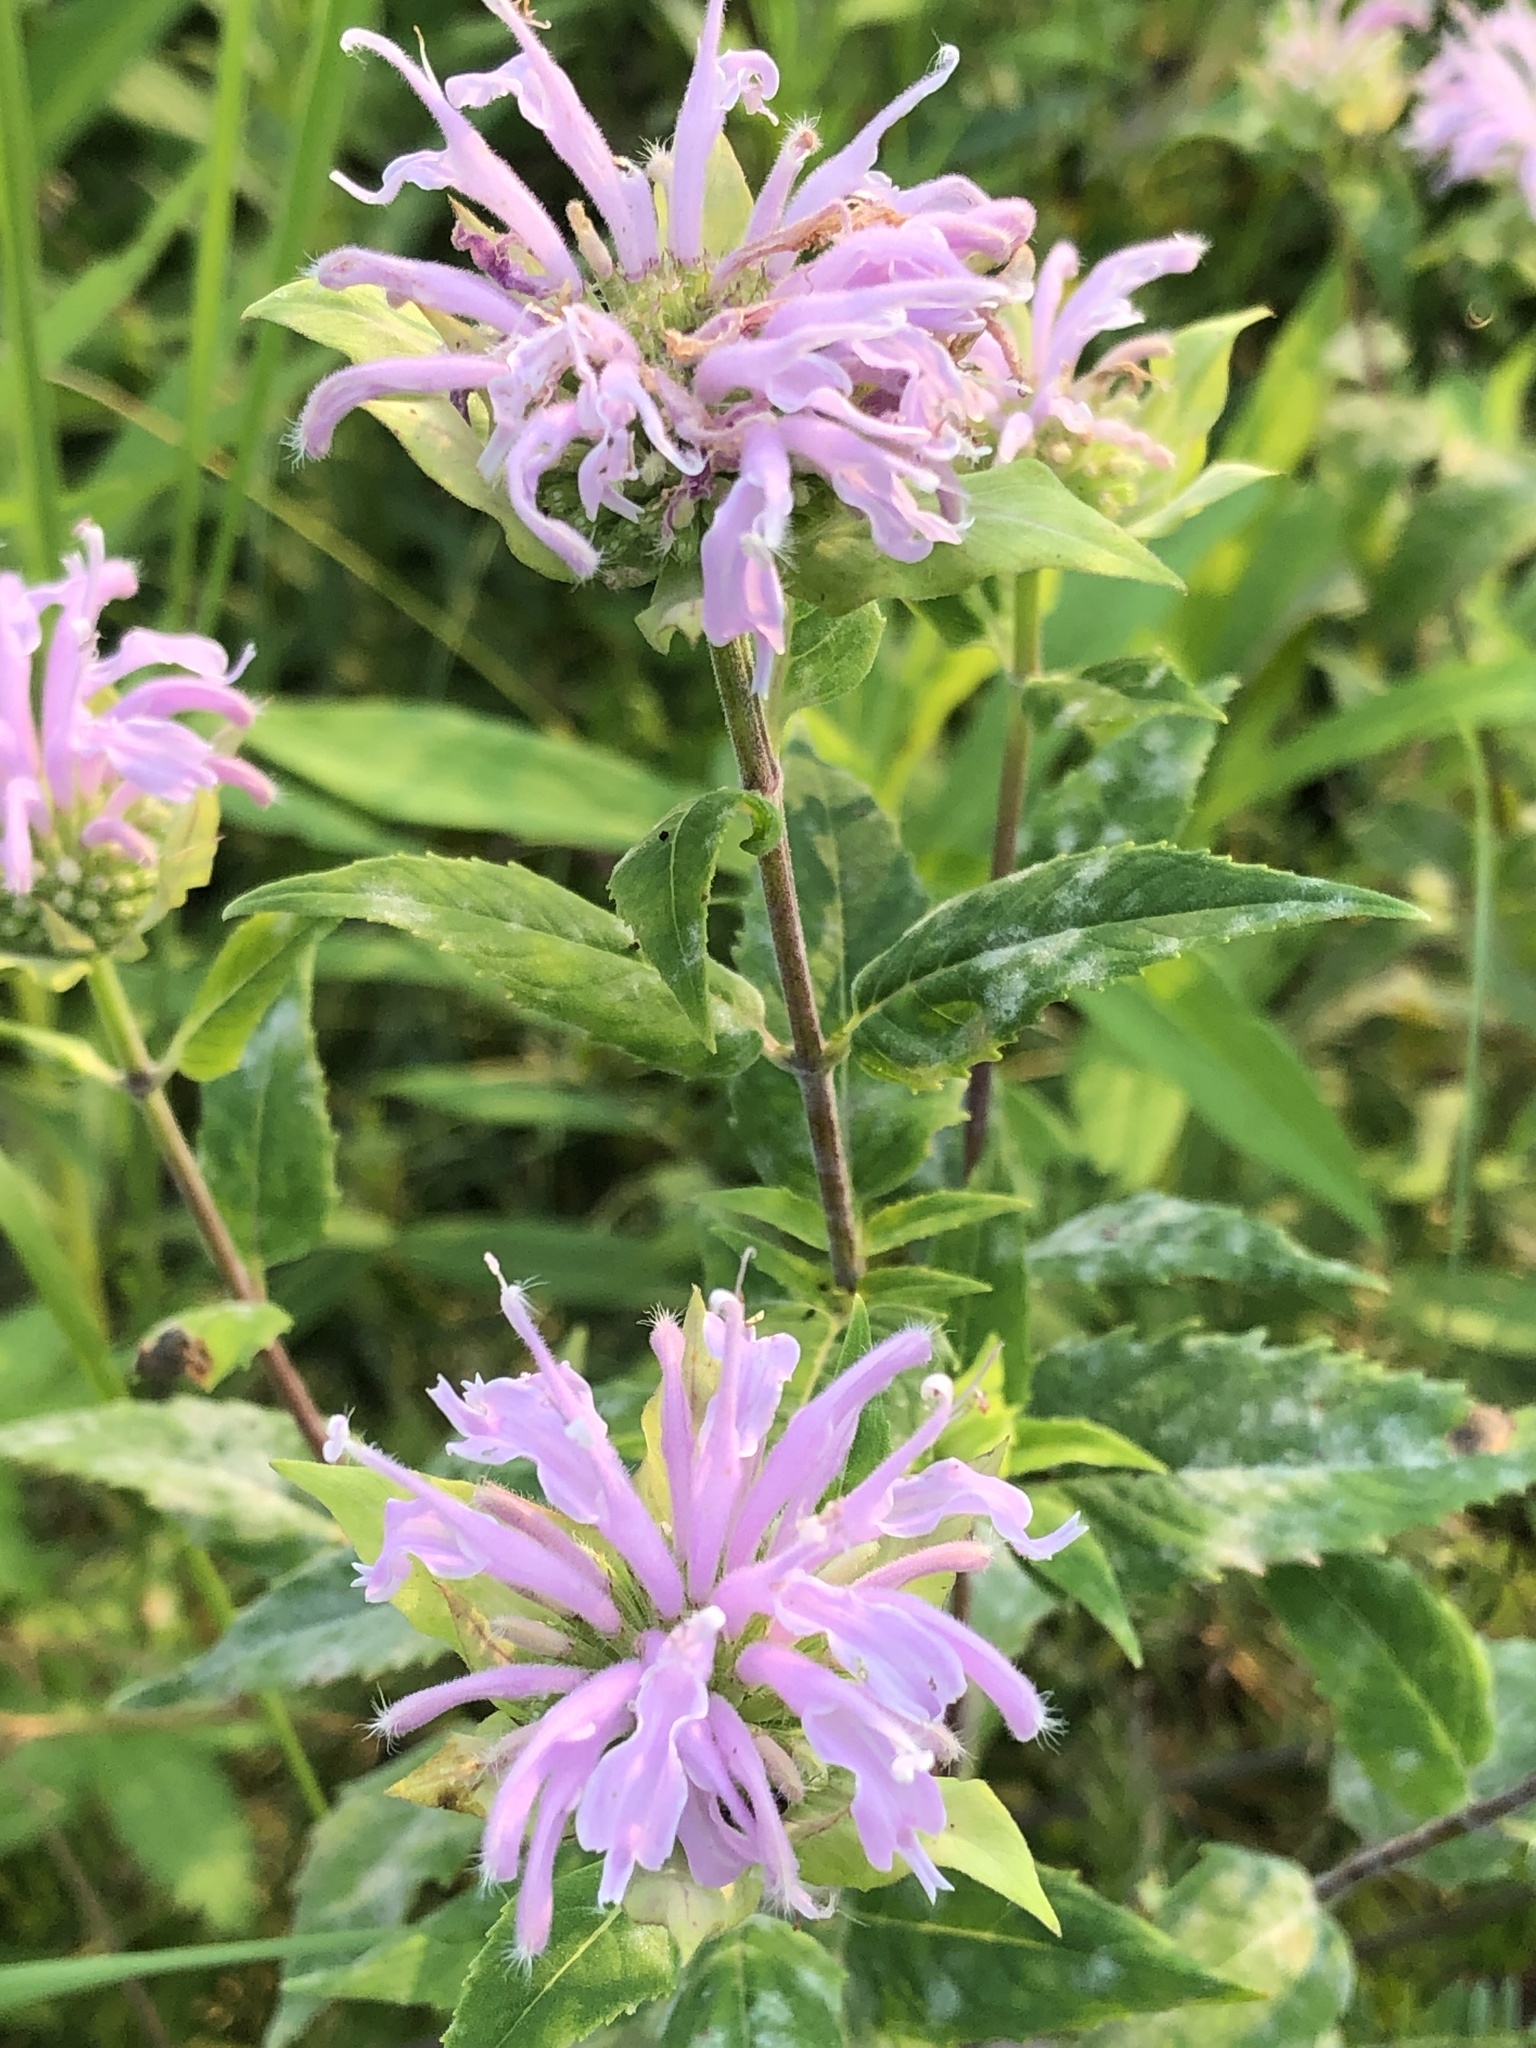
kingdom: Plantae
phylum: Tracheophyta
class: Magnoliopsida
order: Lamiales
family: Lamiaceae
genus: Monarda
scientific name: Monarda fistulosa
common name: Purple beebalm
